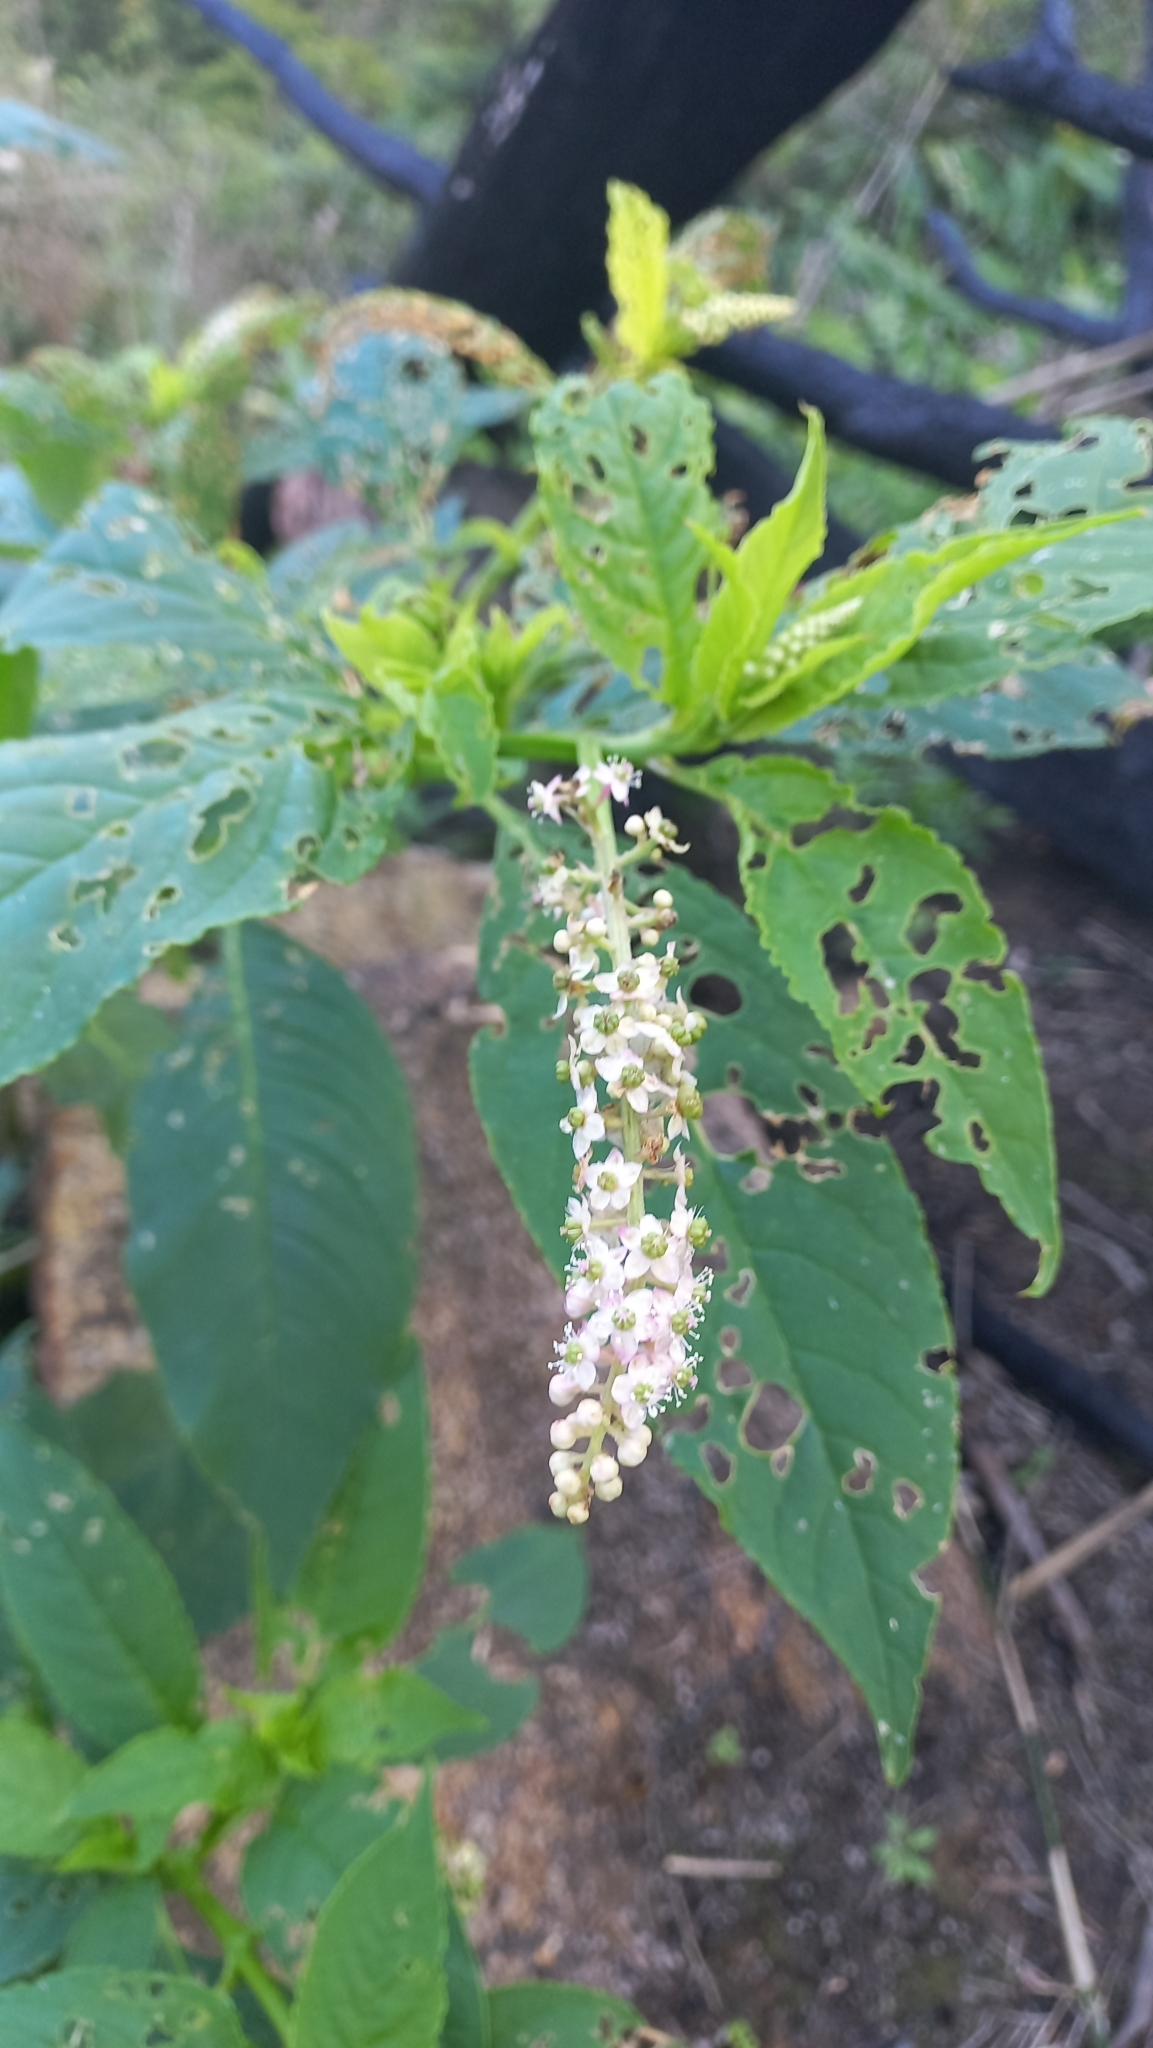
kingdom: Plantae
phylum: Tracheophyta
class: Magnoliopsida
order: Caryophyllales
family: Phytolaccaceae
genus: Phytolacca
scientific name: Phytolacca thyrsiflora
